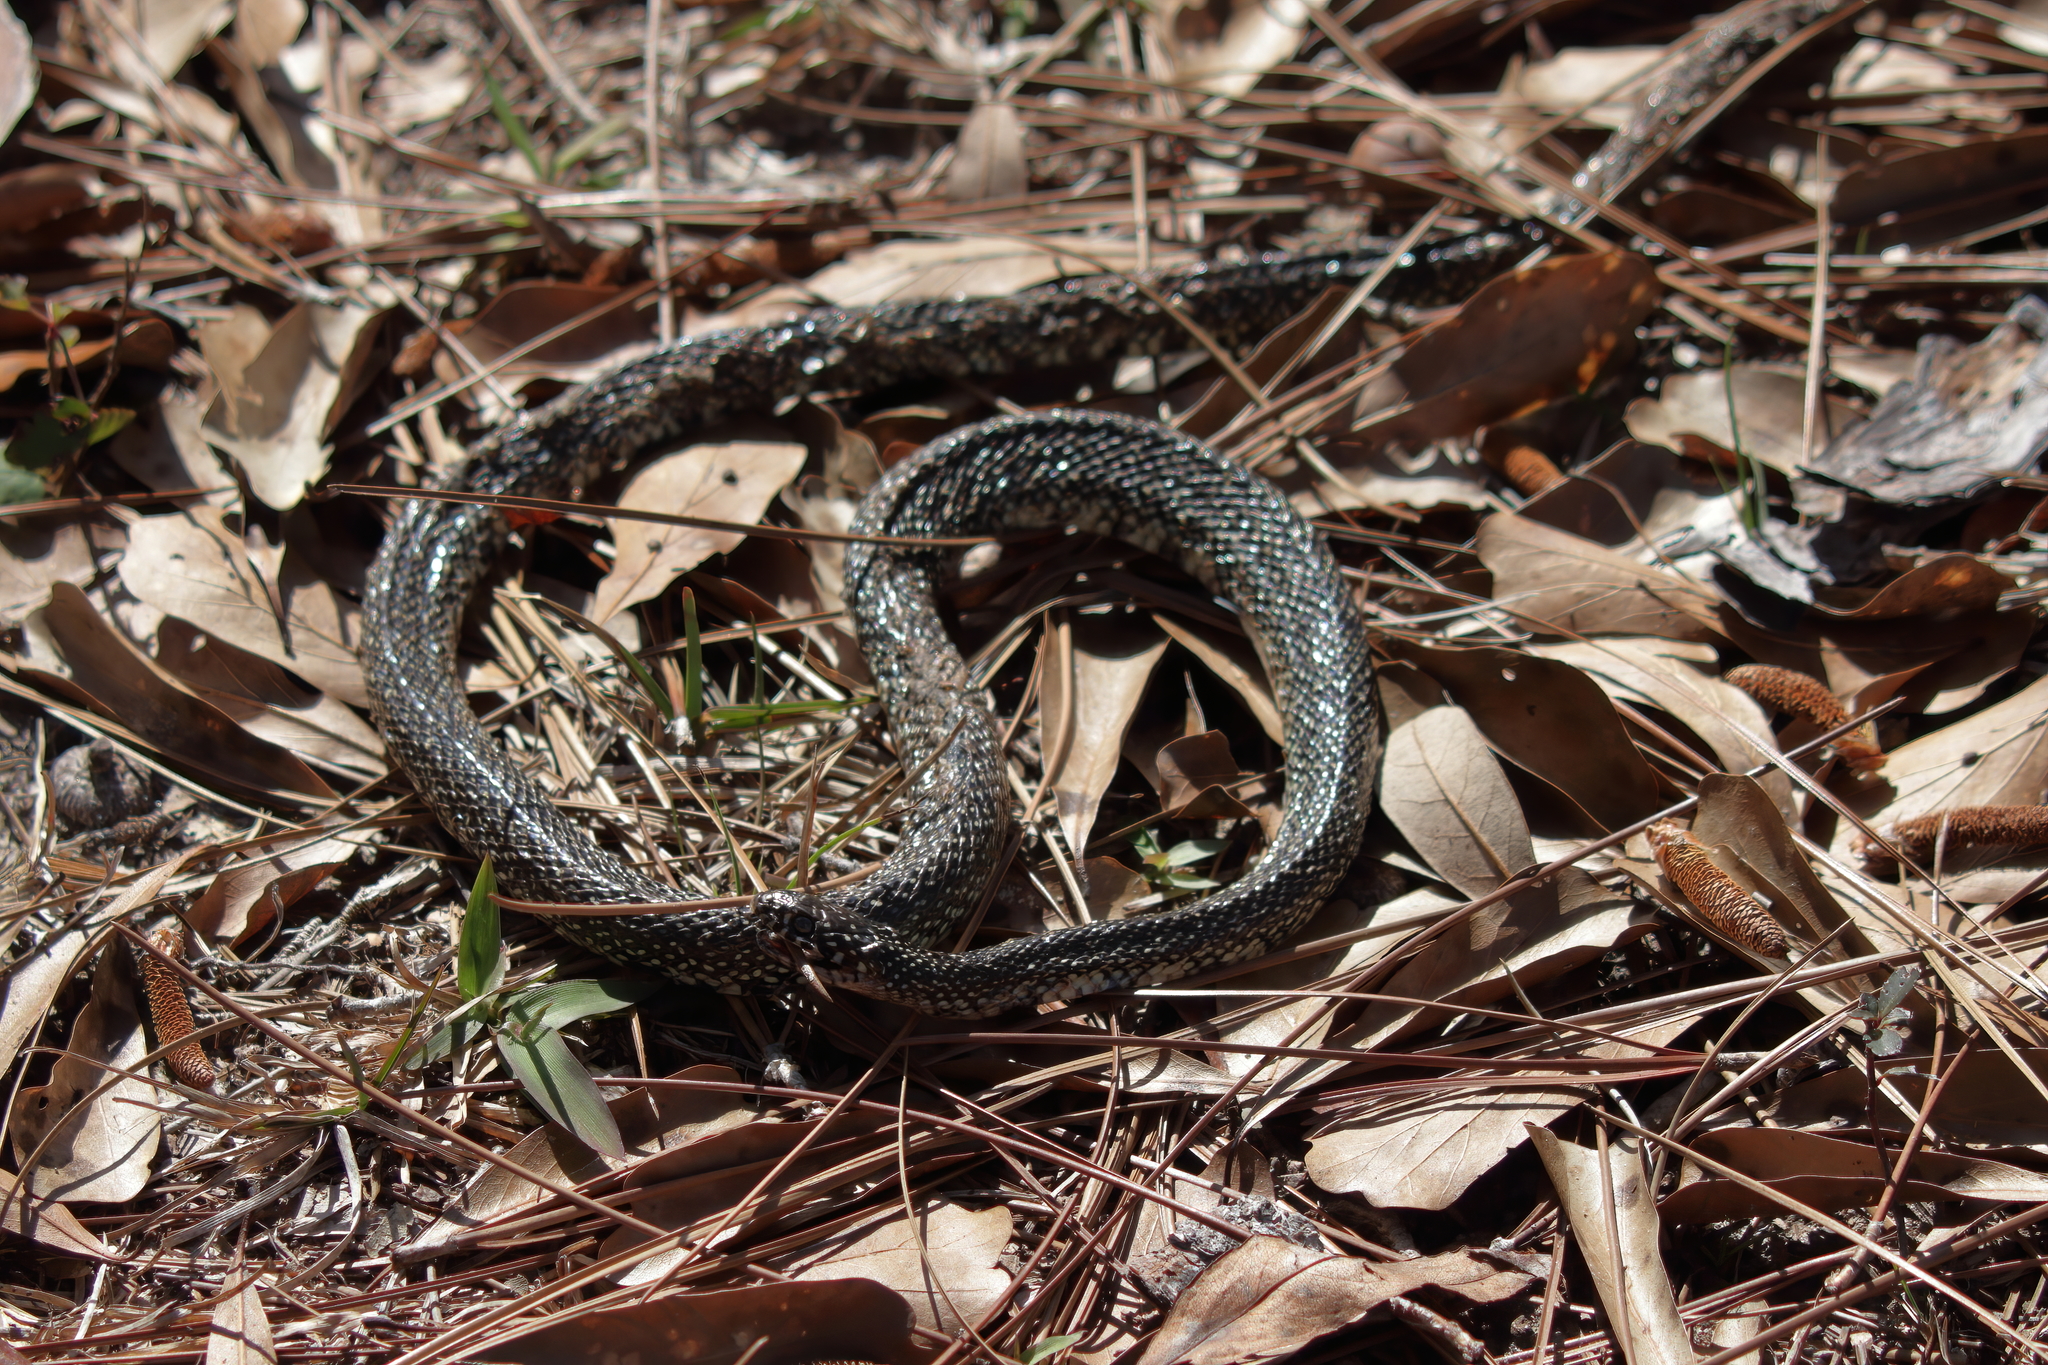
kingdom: Animalia
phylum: Chordata
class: Squamata
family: Colubridae
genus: Lampropeltis
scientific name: Lampropeltis holbrooki
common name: Speckled kingsnake
